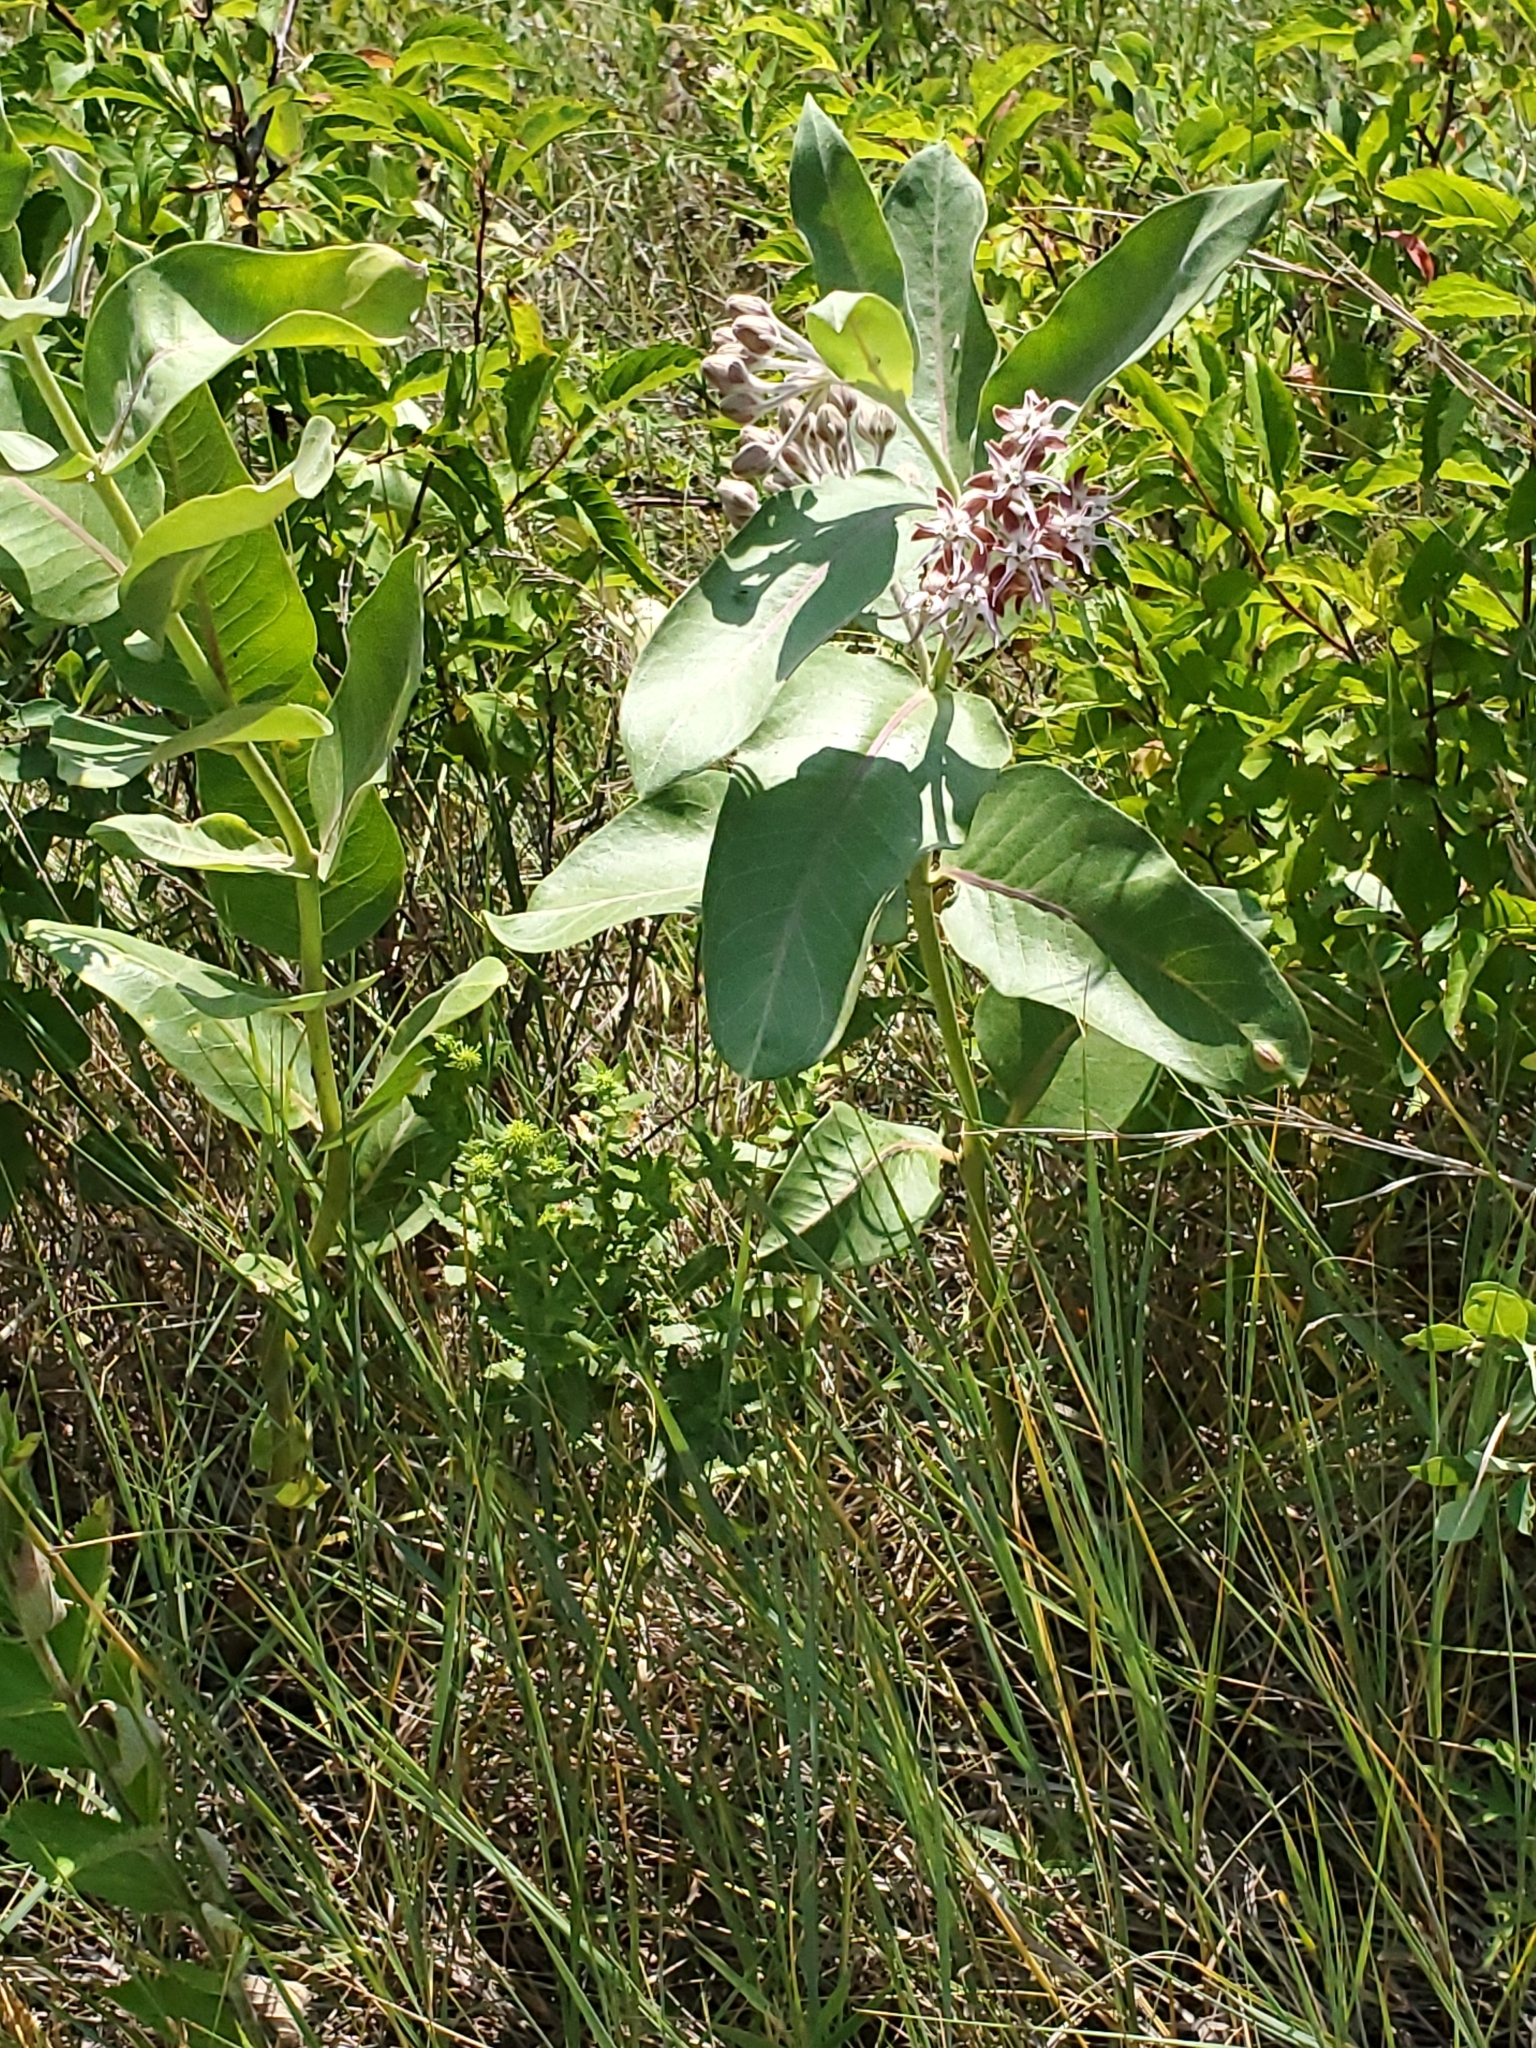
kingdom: Plantae
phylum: Tracheophyta
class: Magnoliopsida
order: Gentianales
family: Apocynaceae
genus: Asclepias
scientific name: Asclepias speciosa
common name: Showy milkweed
